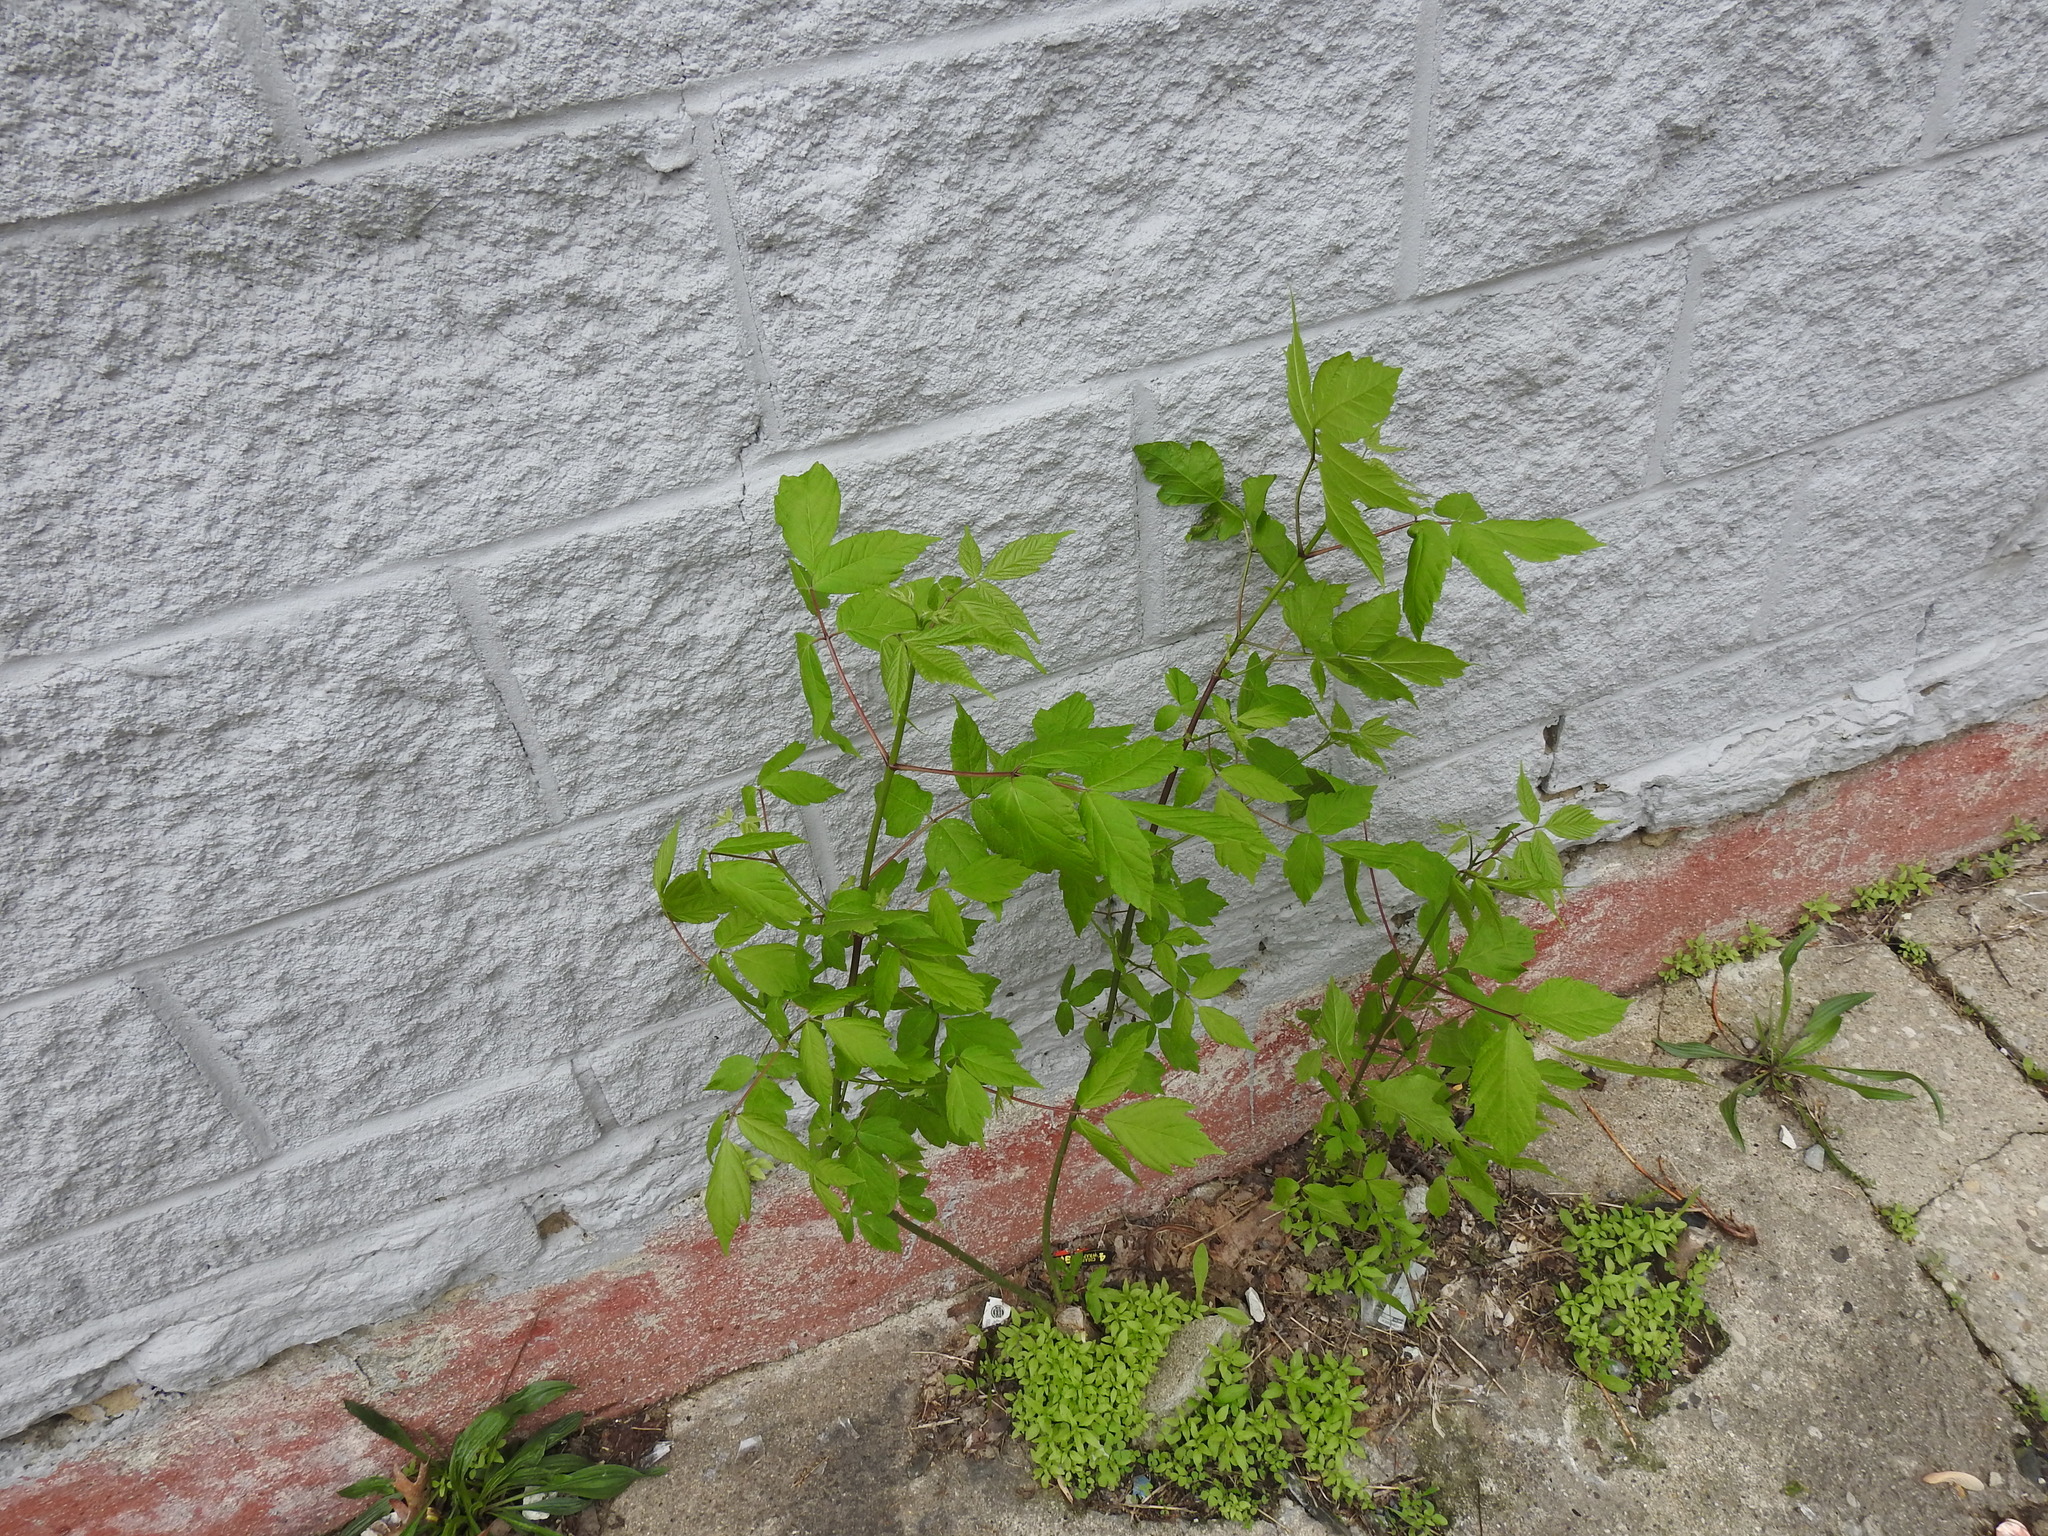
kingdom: Plantae
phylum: Tracheophyta
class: Magnoliopsida
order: Sapindales
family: Sapindaceae
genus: Acer
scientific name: Acer negundo
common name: Ashleaf maple
